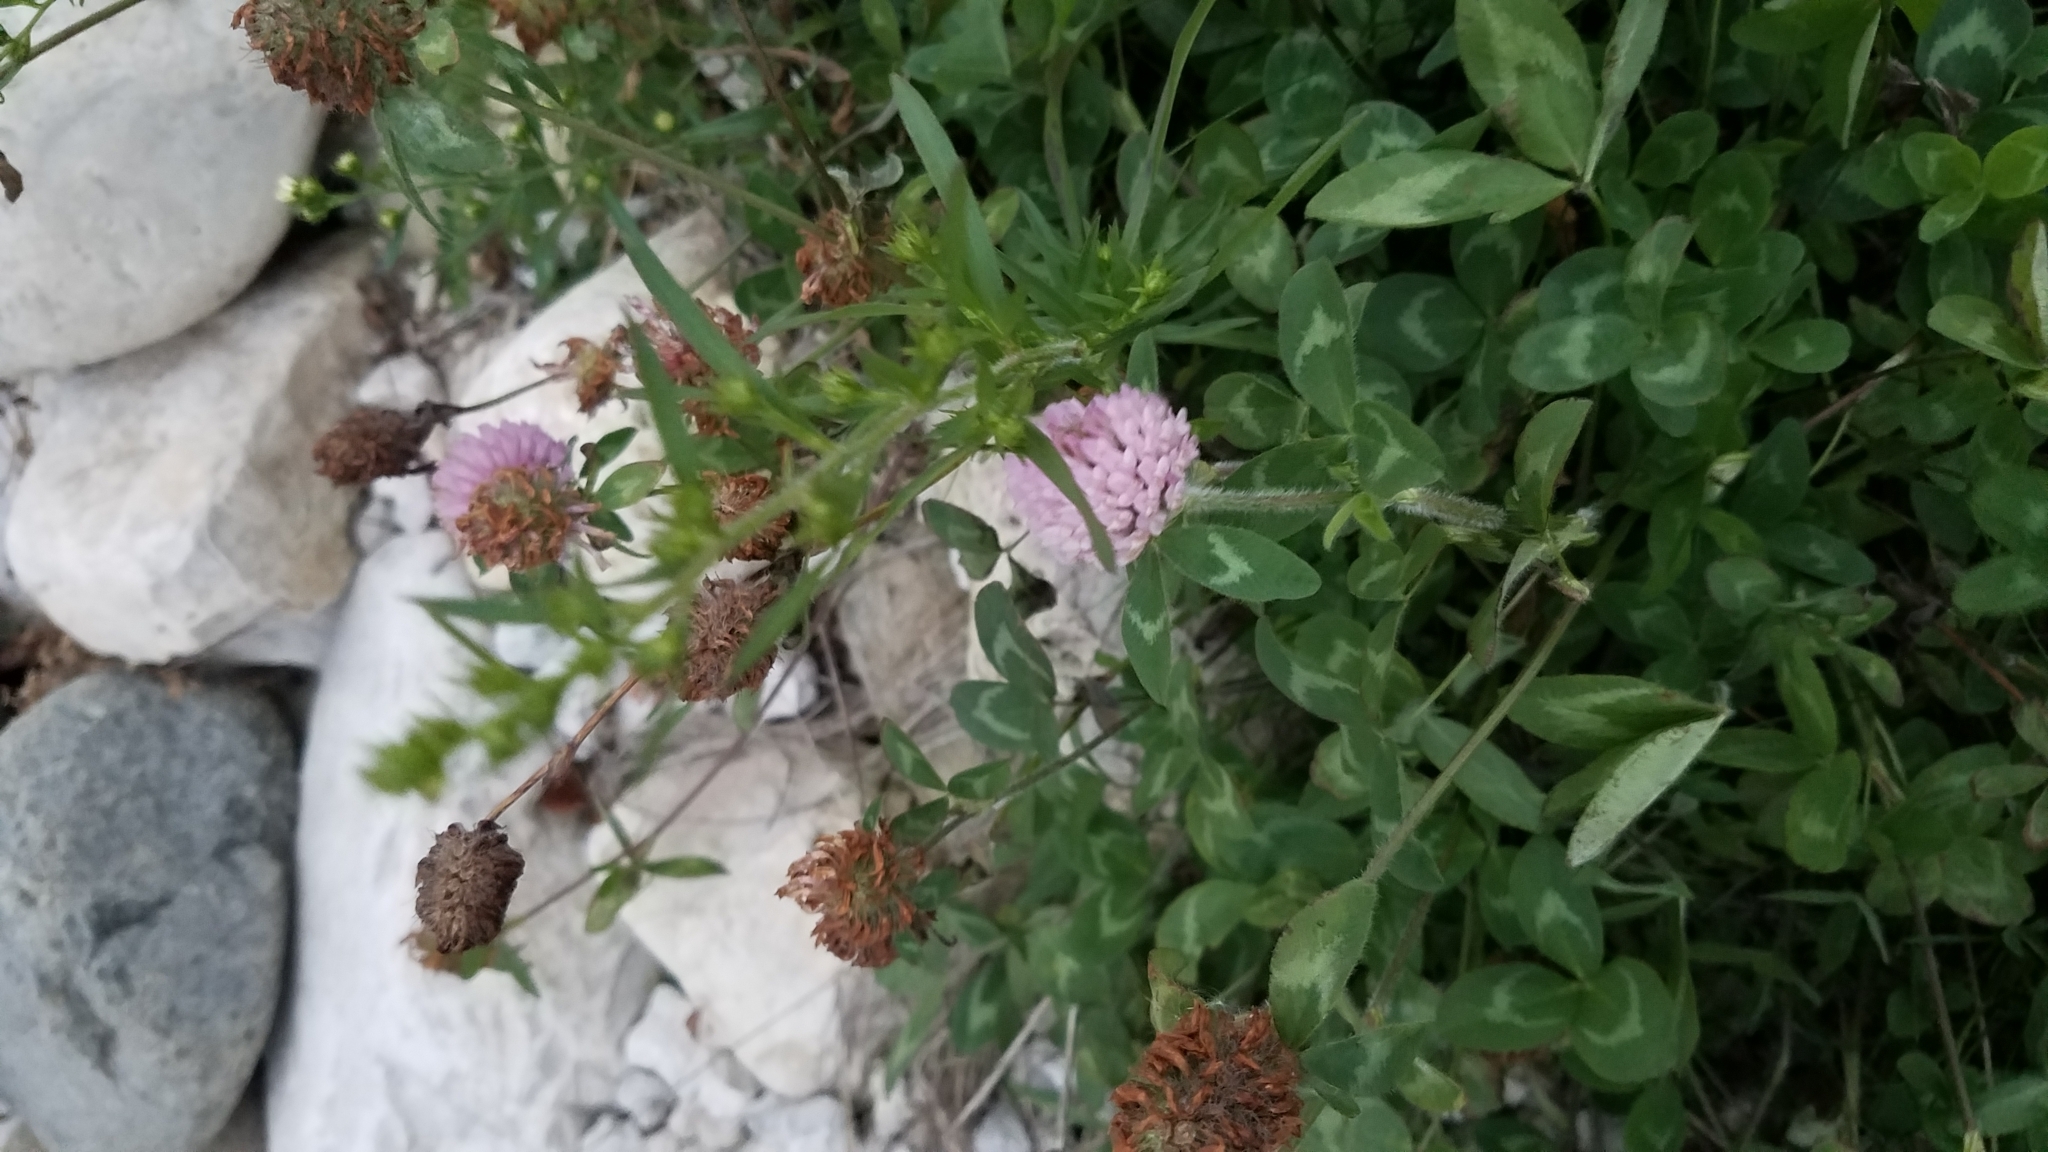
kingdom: Plantae
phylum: Tracheophyta
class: Magnoliopsida
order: Fabales
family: Fabaceae
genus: Trifolium
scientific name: Trifolium pratense
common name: Red clover
